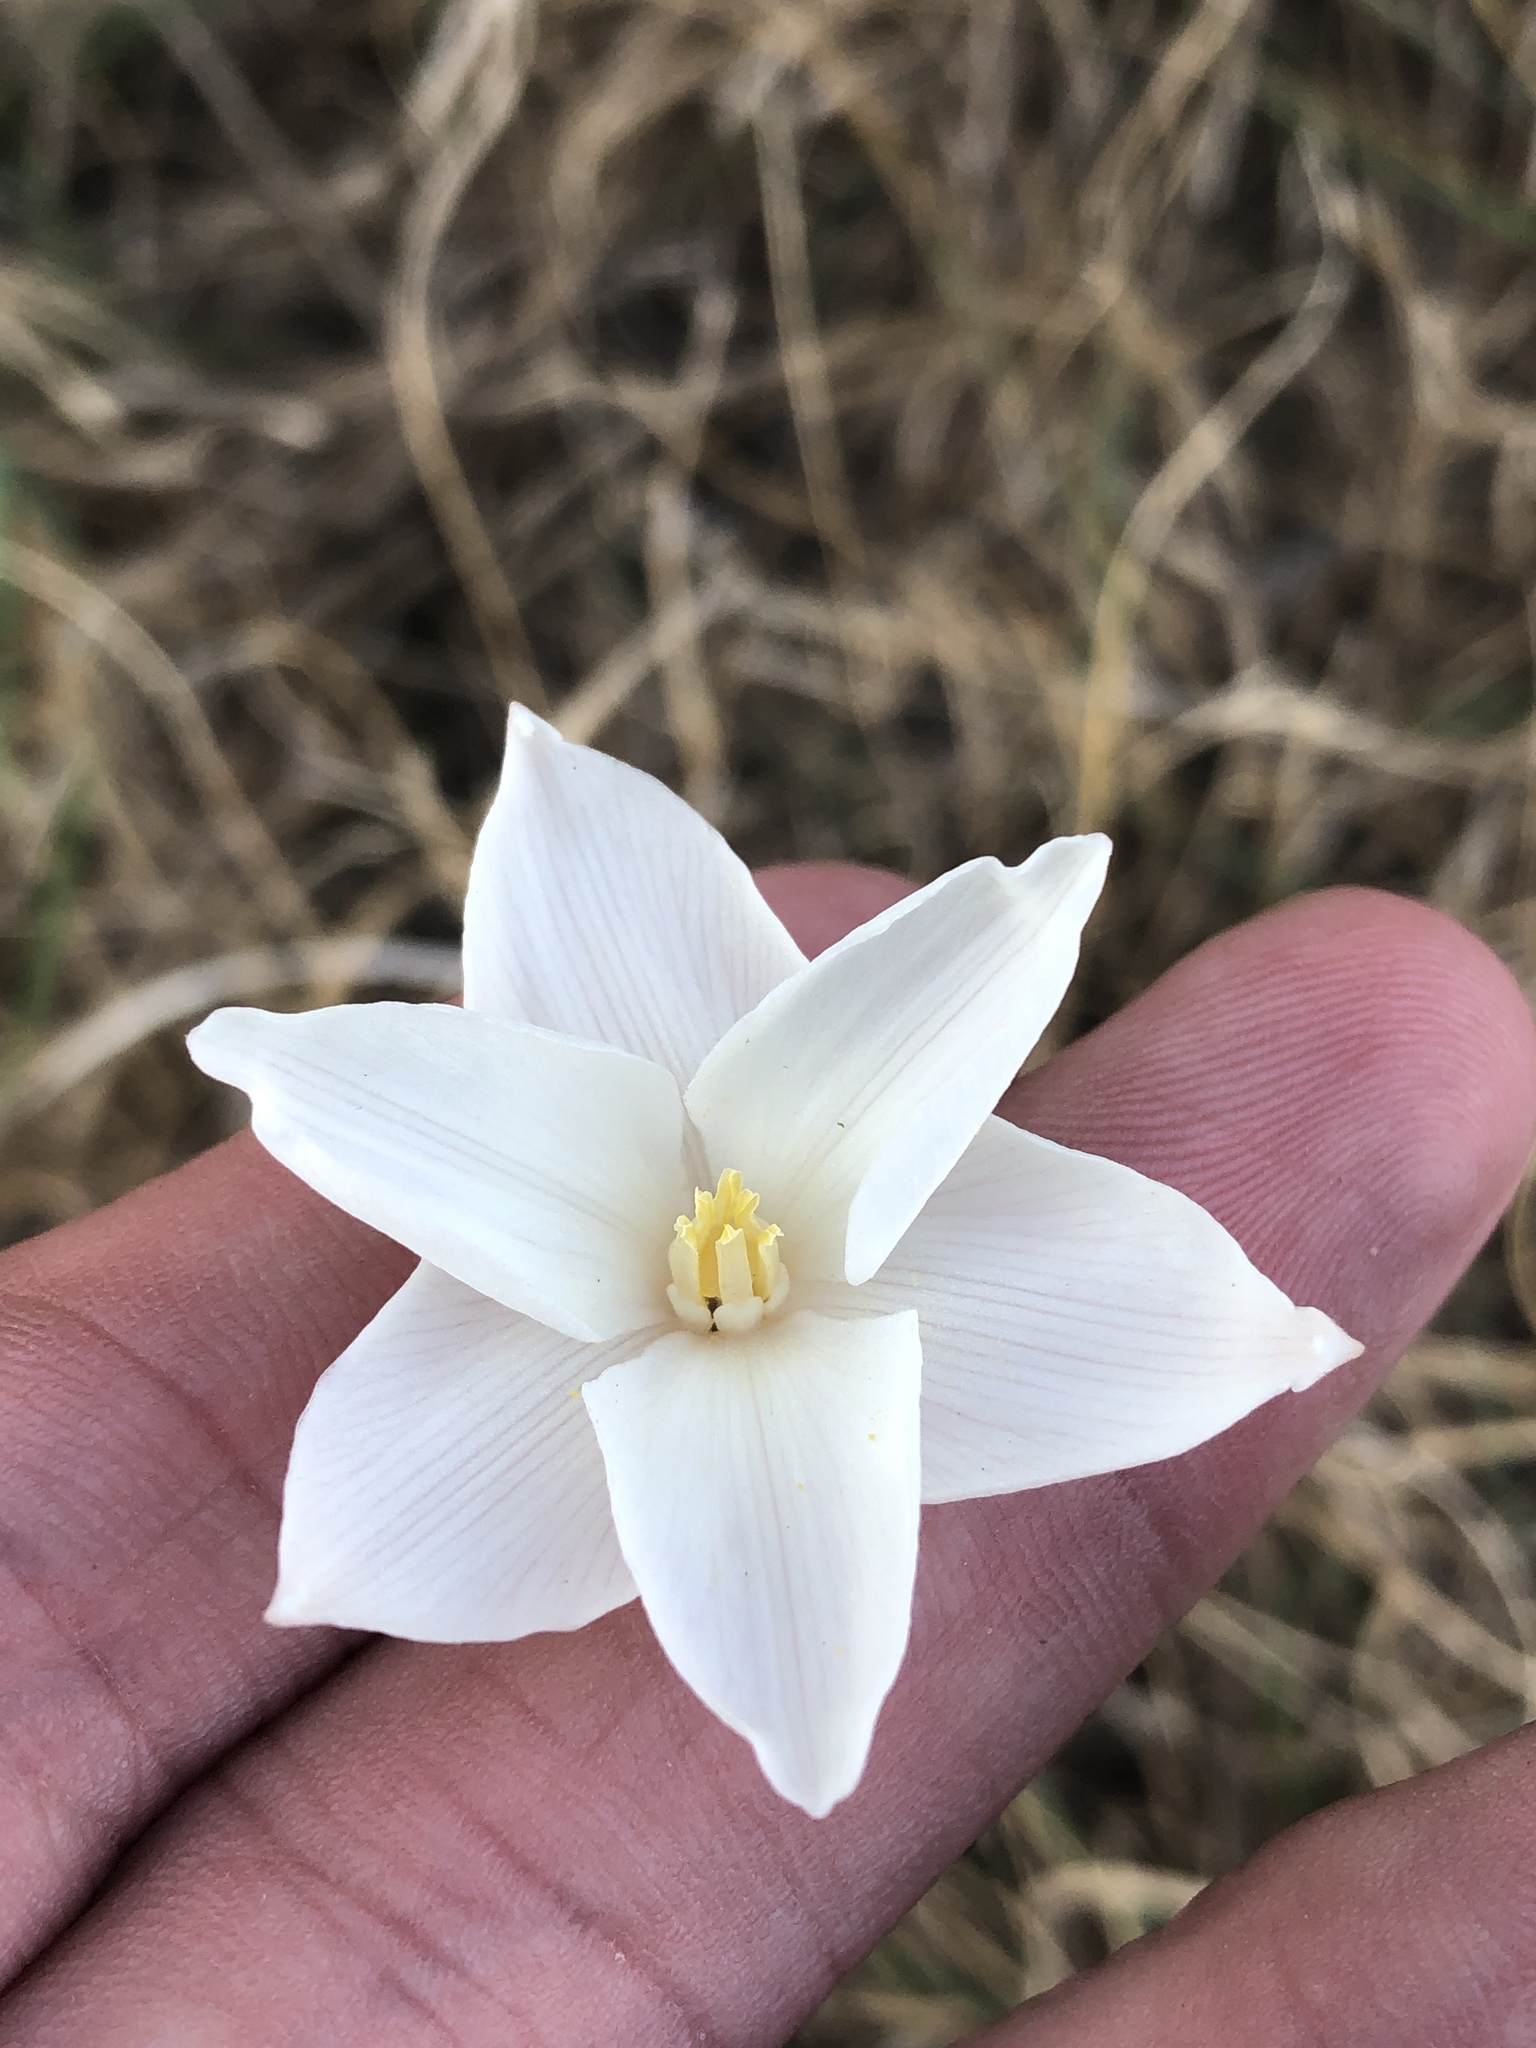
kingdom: Plantae
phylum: Tracheophyta
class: Liliopsida
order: Asparagales
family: Amaryllidaceae
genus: Zephyranthes
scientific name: Zephyranthes chlorosolen
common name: Evening rain-lily
